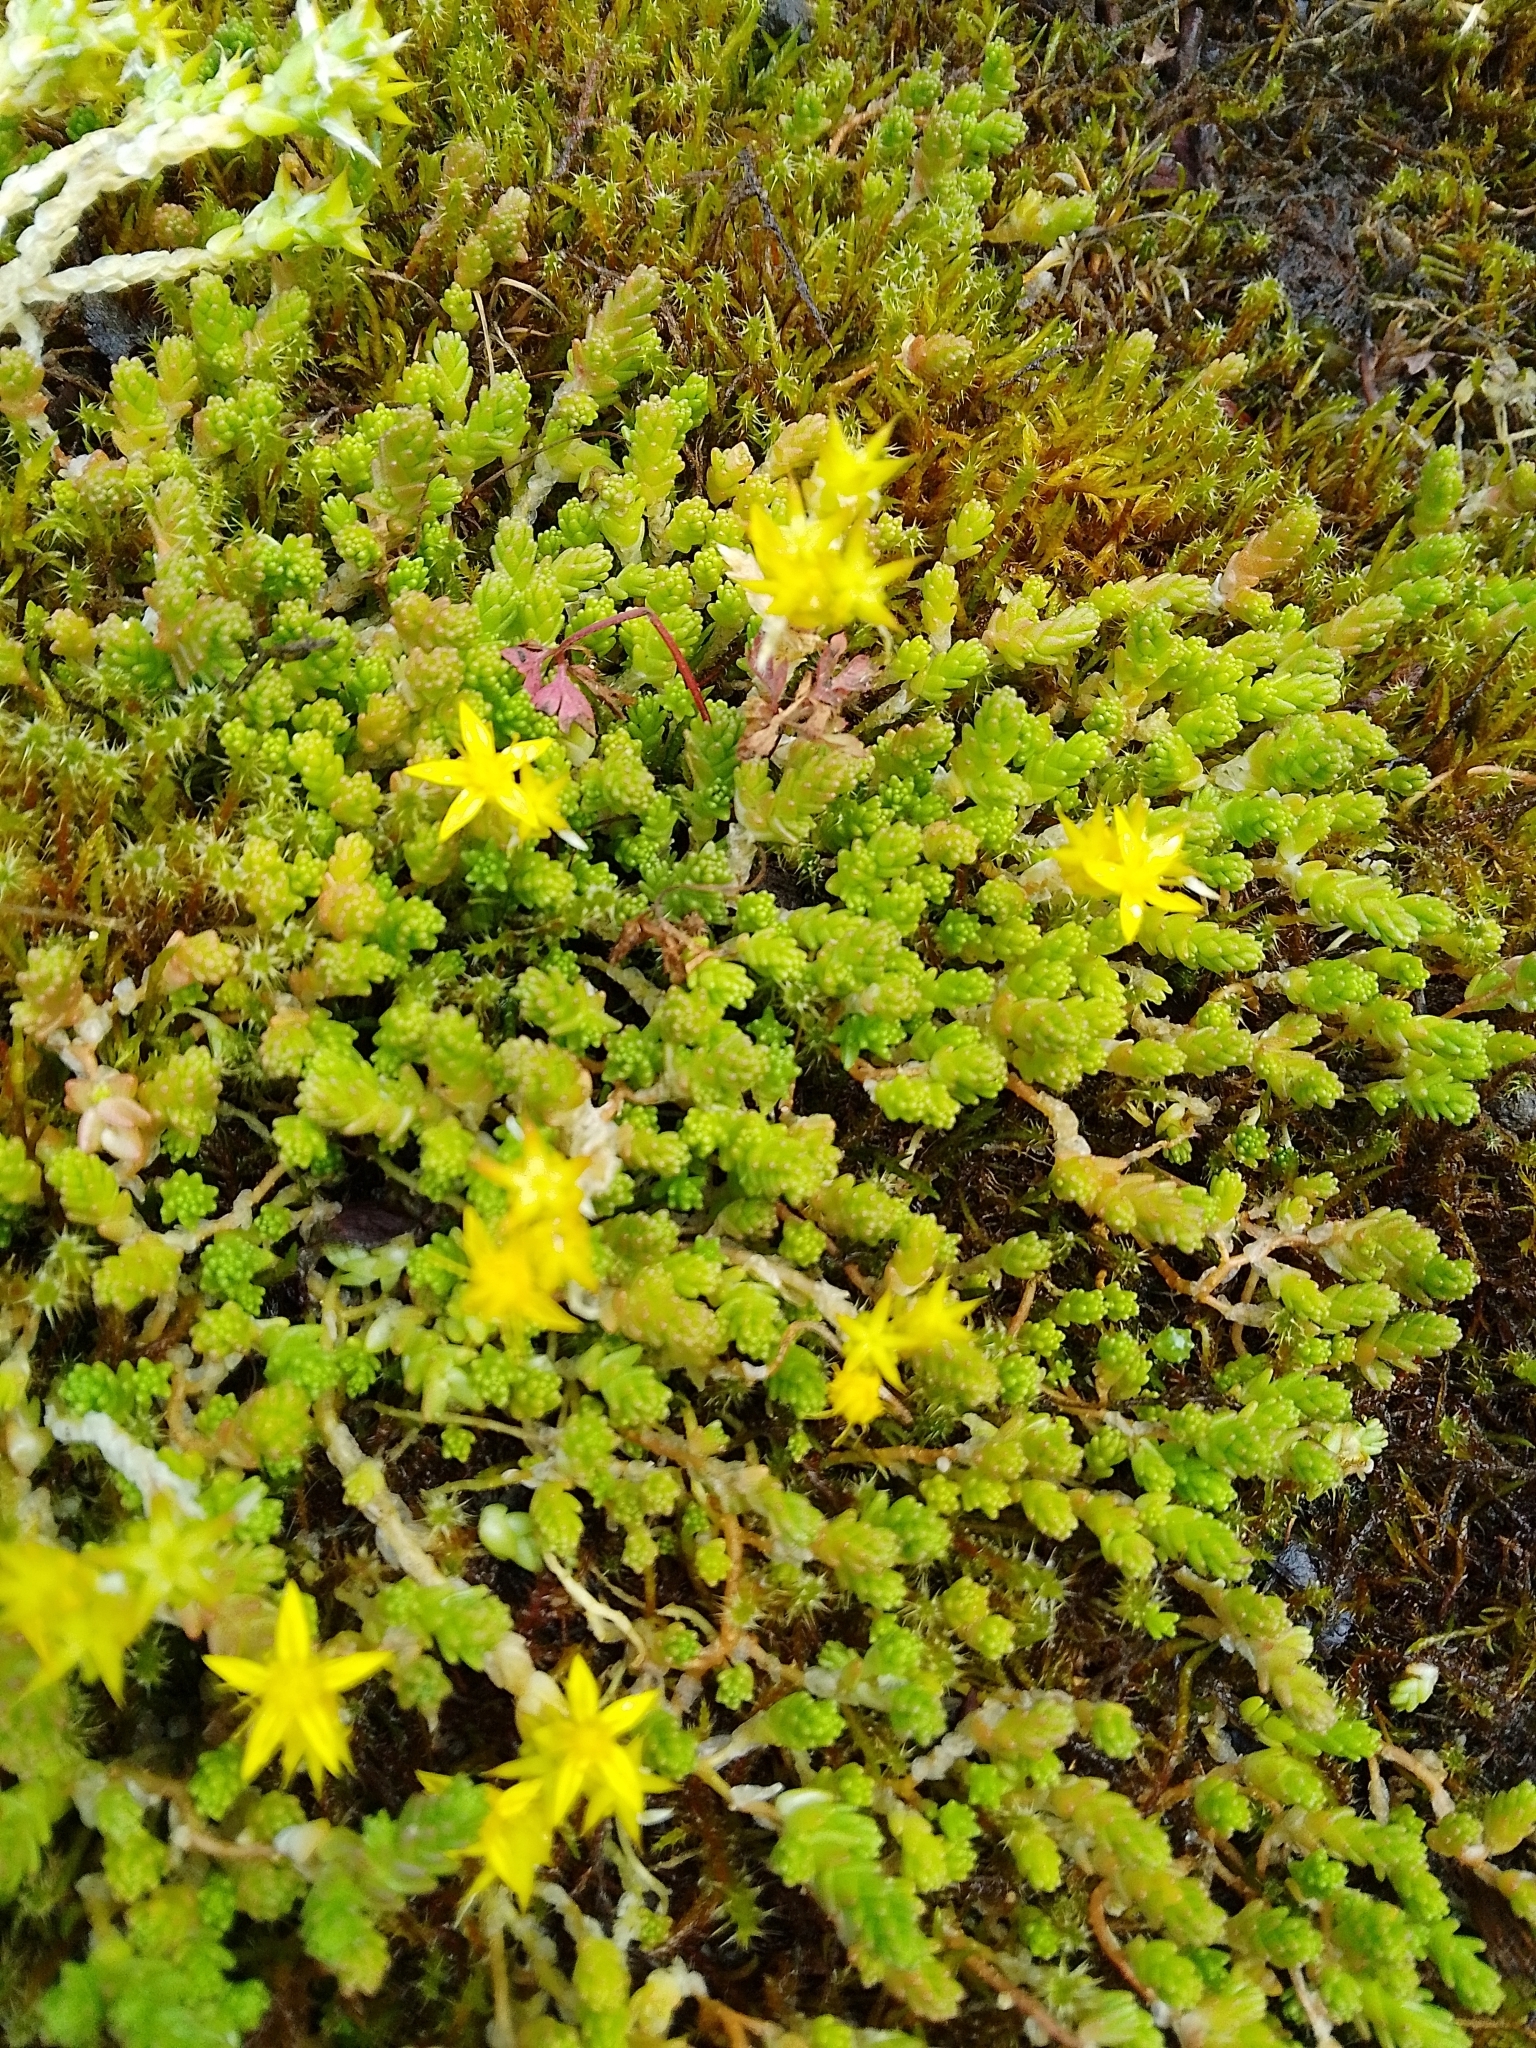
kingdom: Plantae
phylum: Tracheophyta
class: Magnoliopsida
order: Saxifragales
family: Crassulaceae
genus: Sedum
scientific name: Sedum acre
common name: Biting stonecrop
